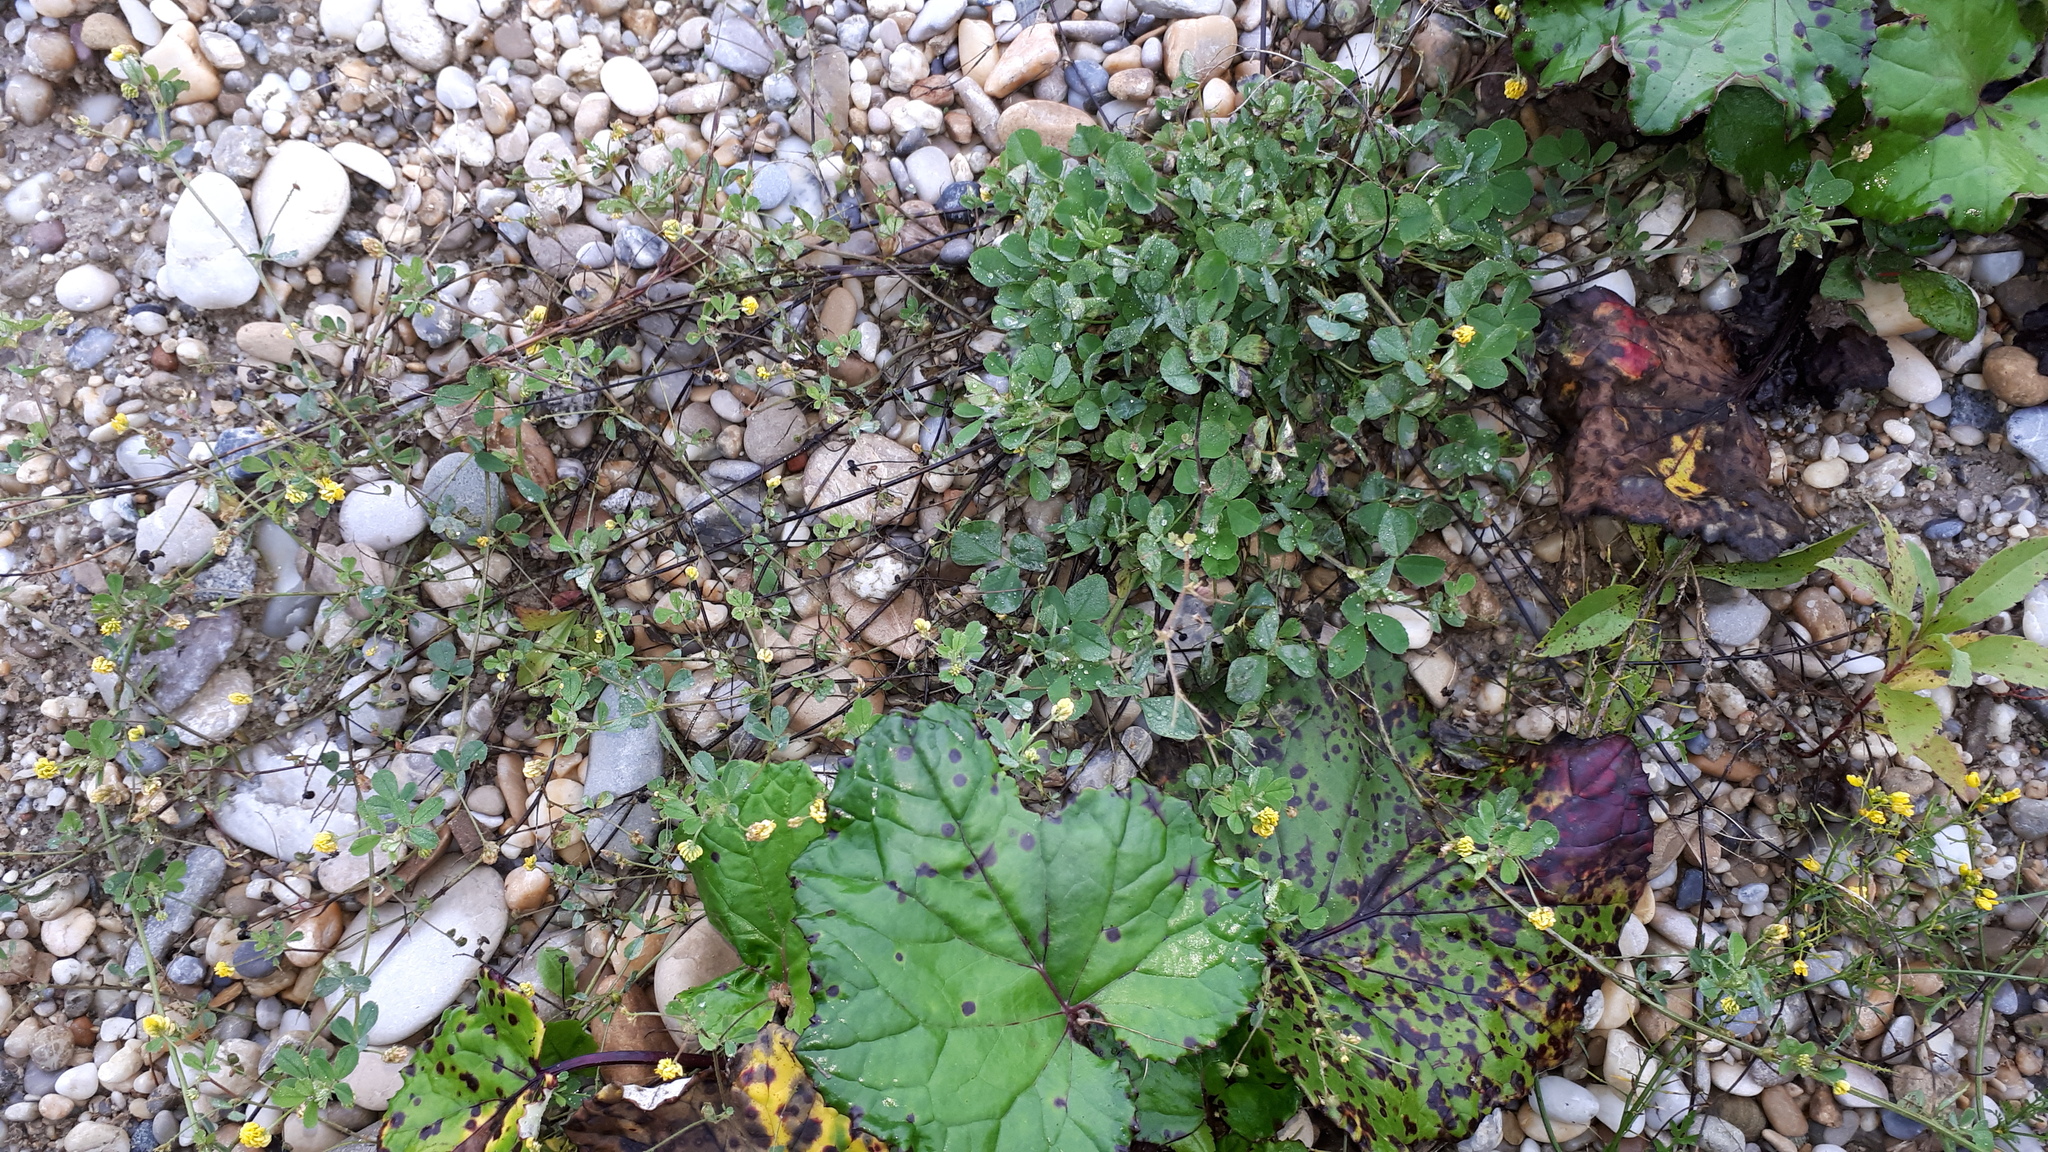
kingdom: Plantae
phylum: Tracheophyta
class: Magnoliopsida
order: Fabales
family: Fabaceae
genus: Medicago
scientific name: Medicago lupulina
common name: Black medick
